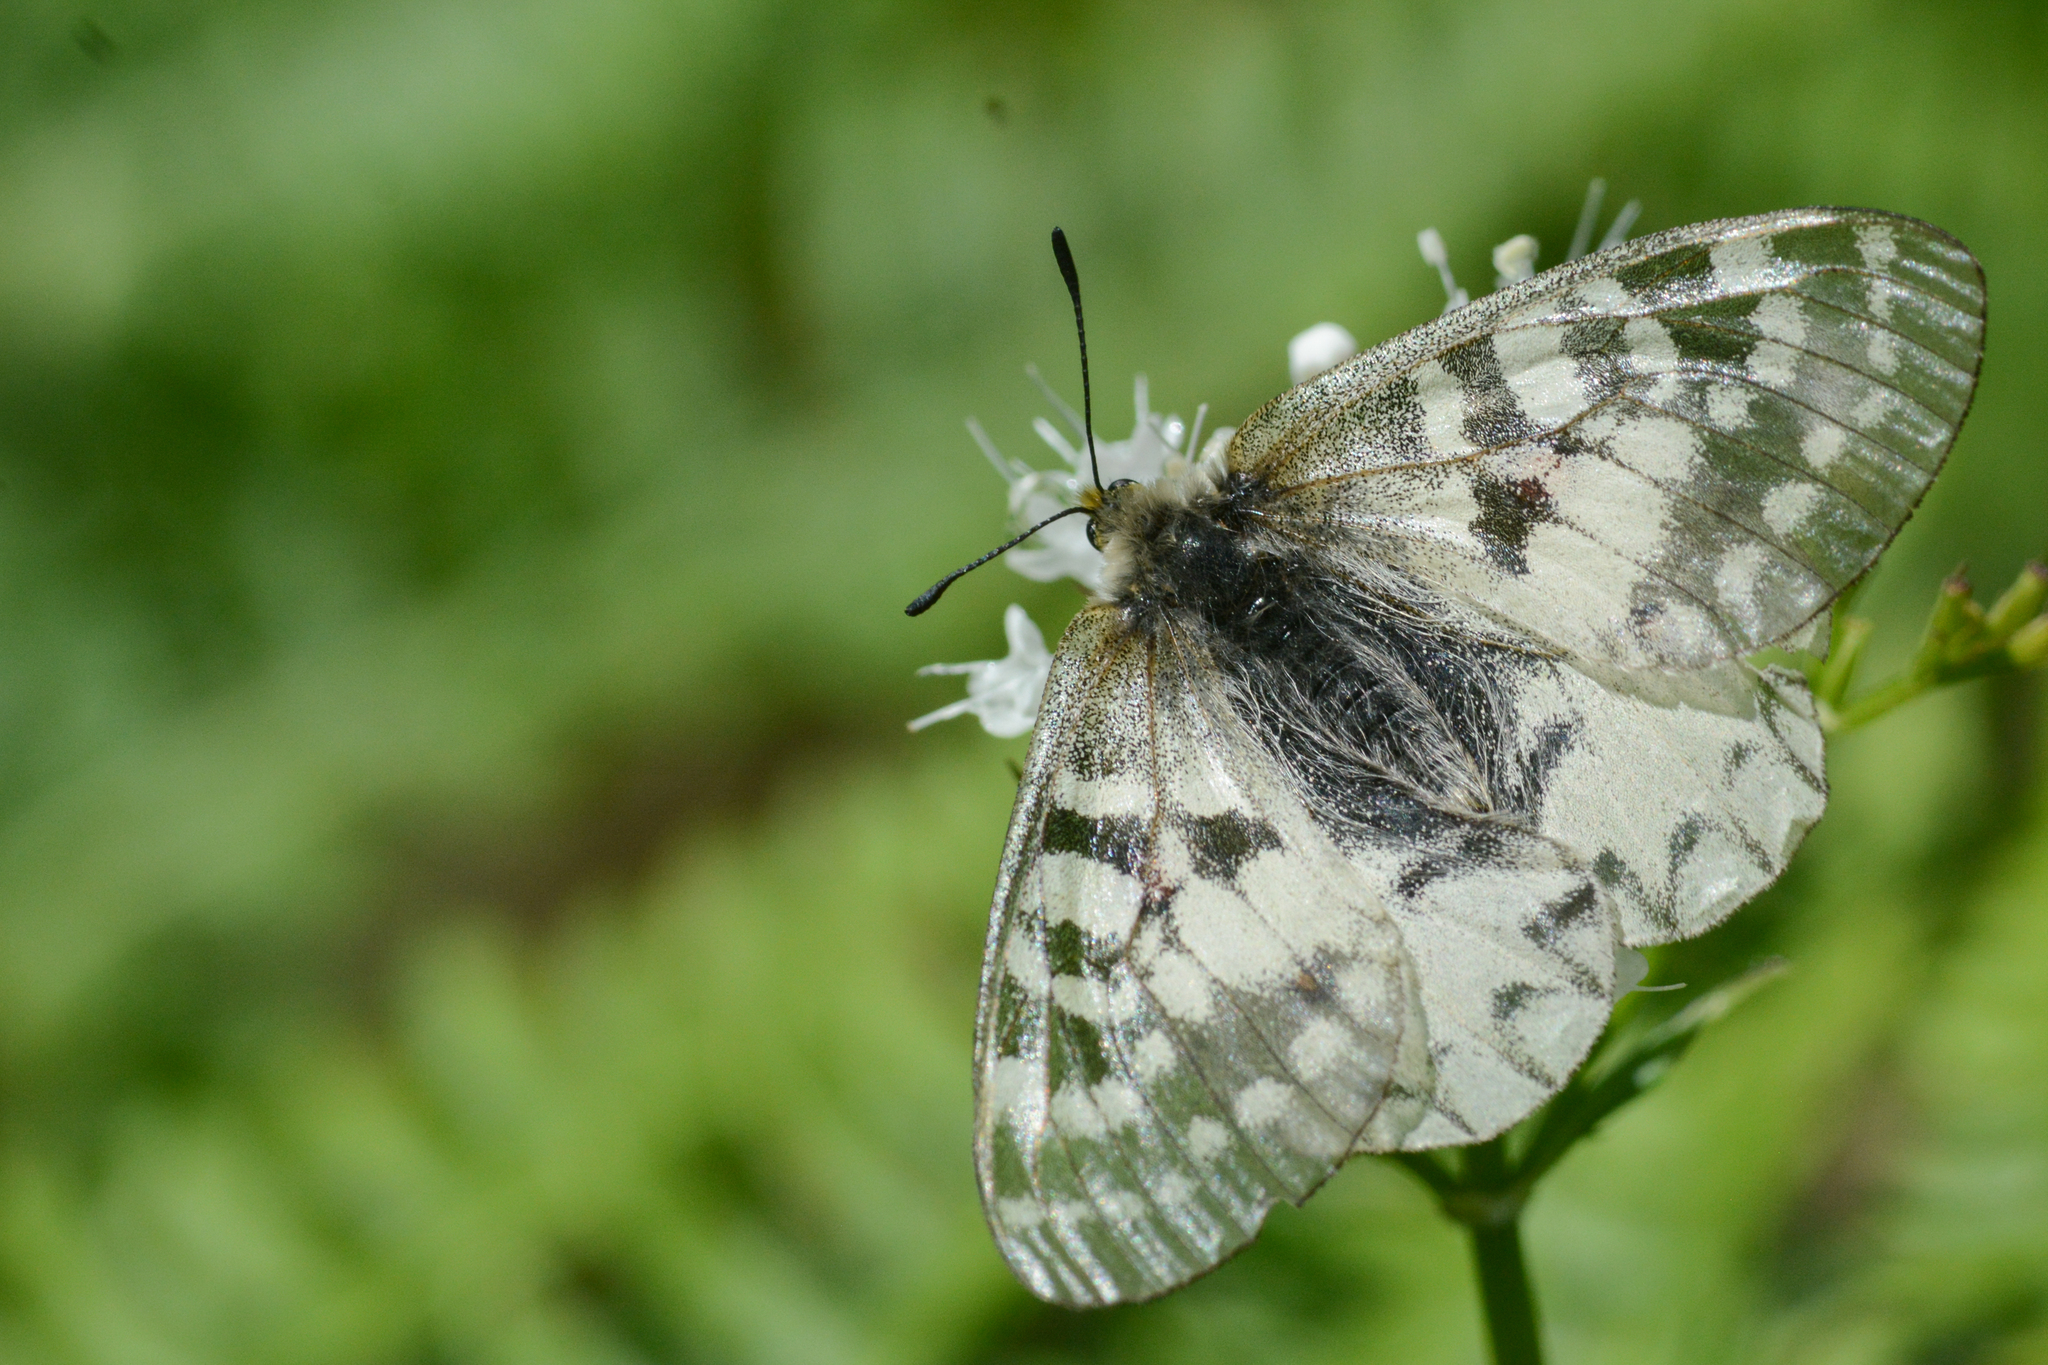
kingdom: Animalia
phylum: Arthropoda
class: Insecta
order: Lepidoptera
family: Papilionidae
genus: Parnassius
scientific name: Parnassius clodius
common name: American apollo
